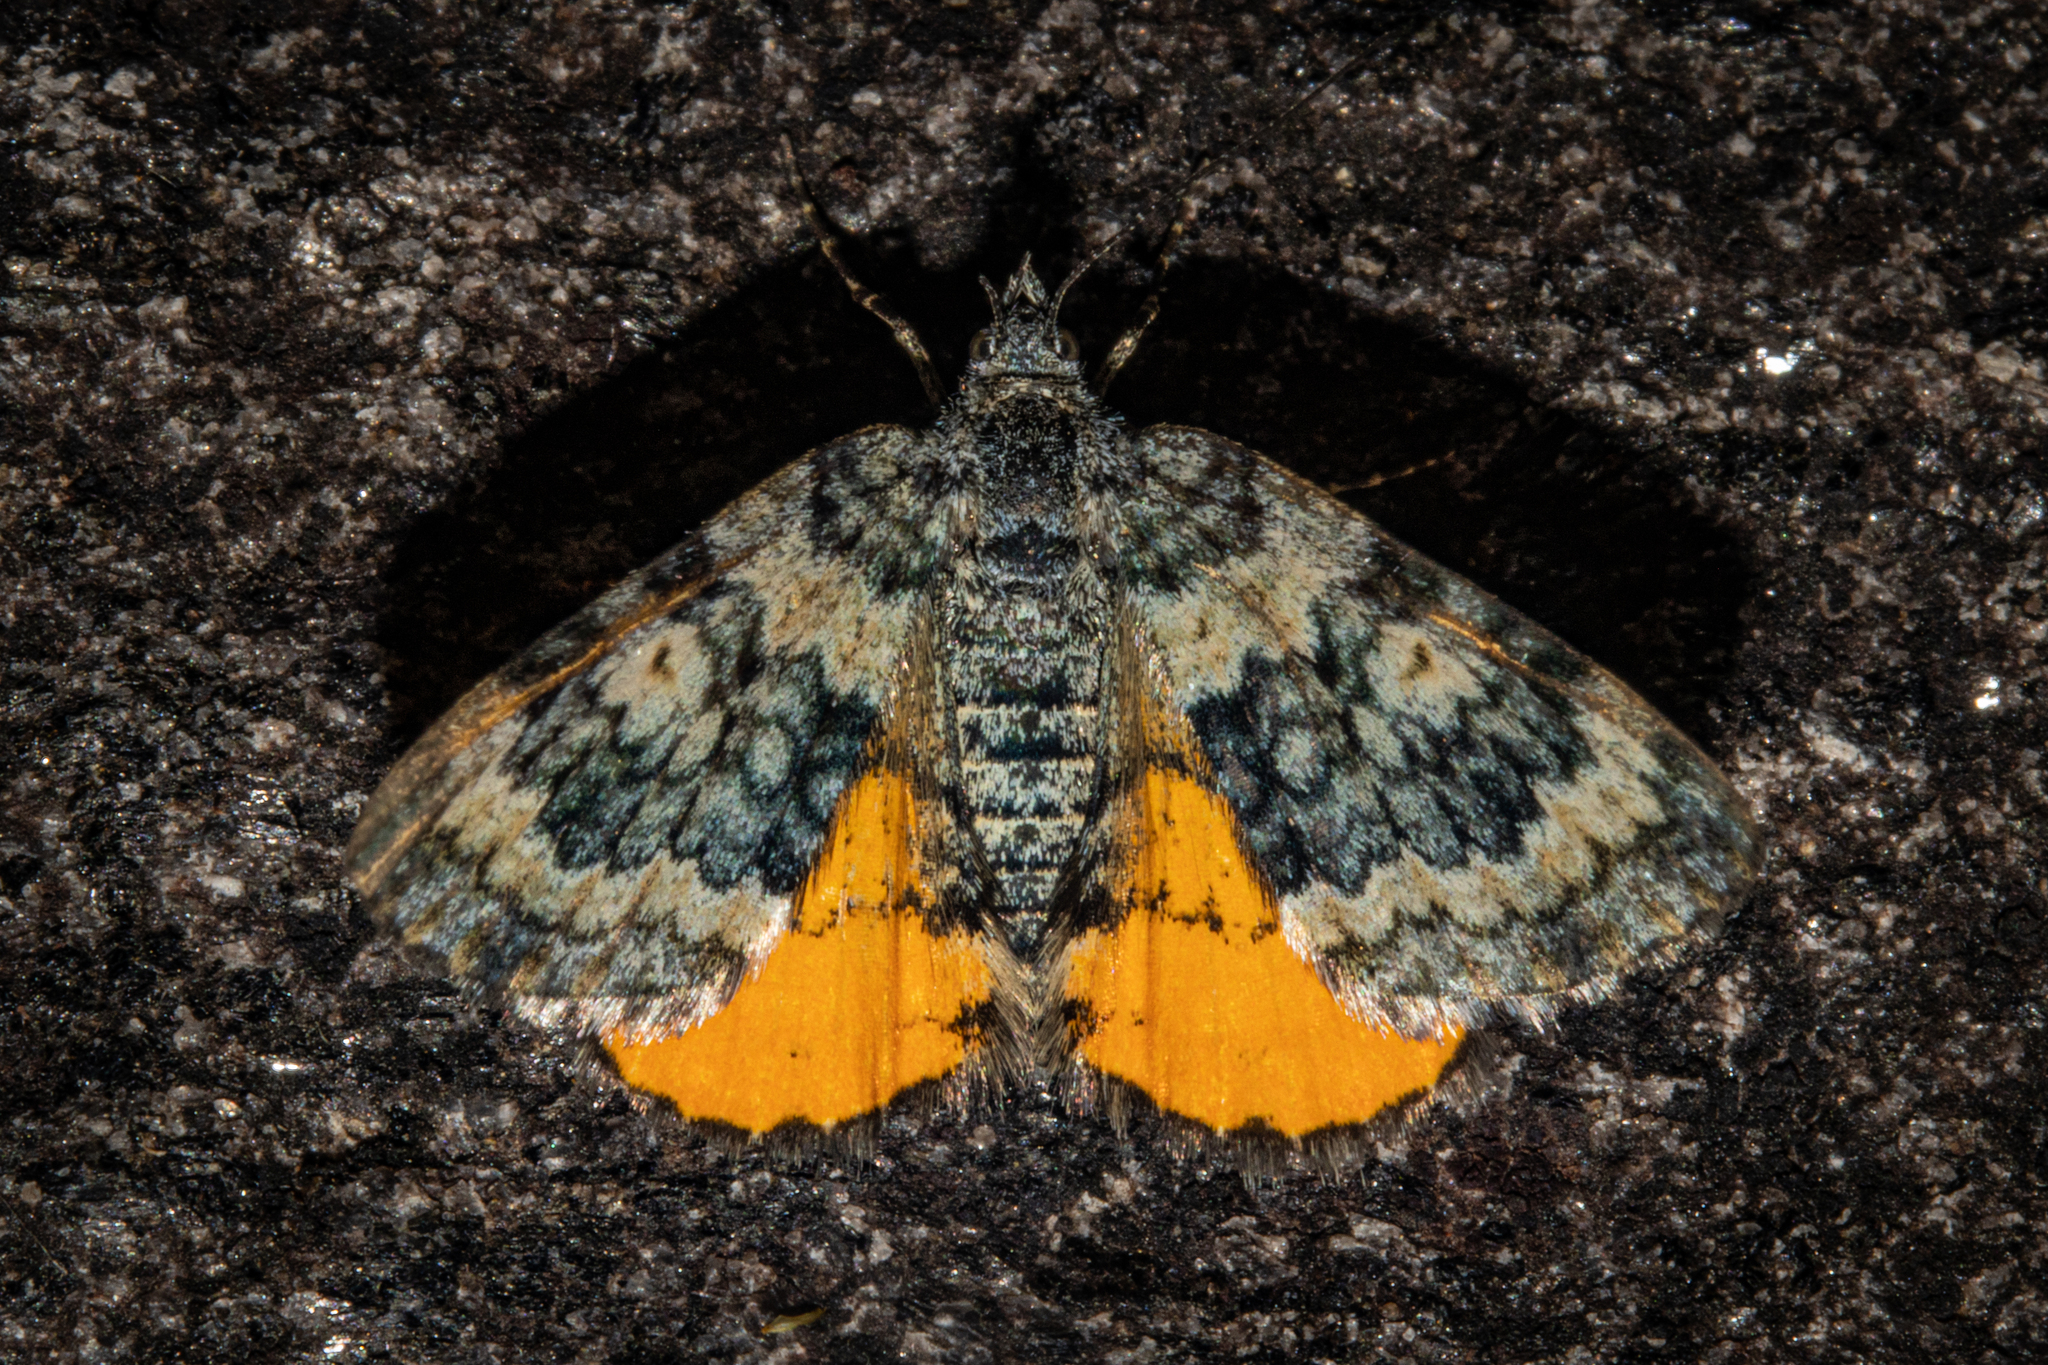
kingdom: Animalia
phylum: Arthropoda
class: Insecta
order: Lepidoptera
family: Geometridae
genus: Paranotoreas
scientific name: Paranotoreas zopyra
